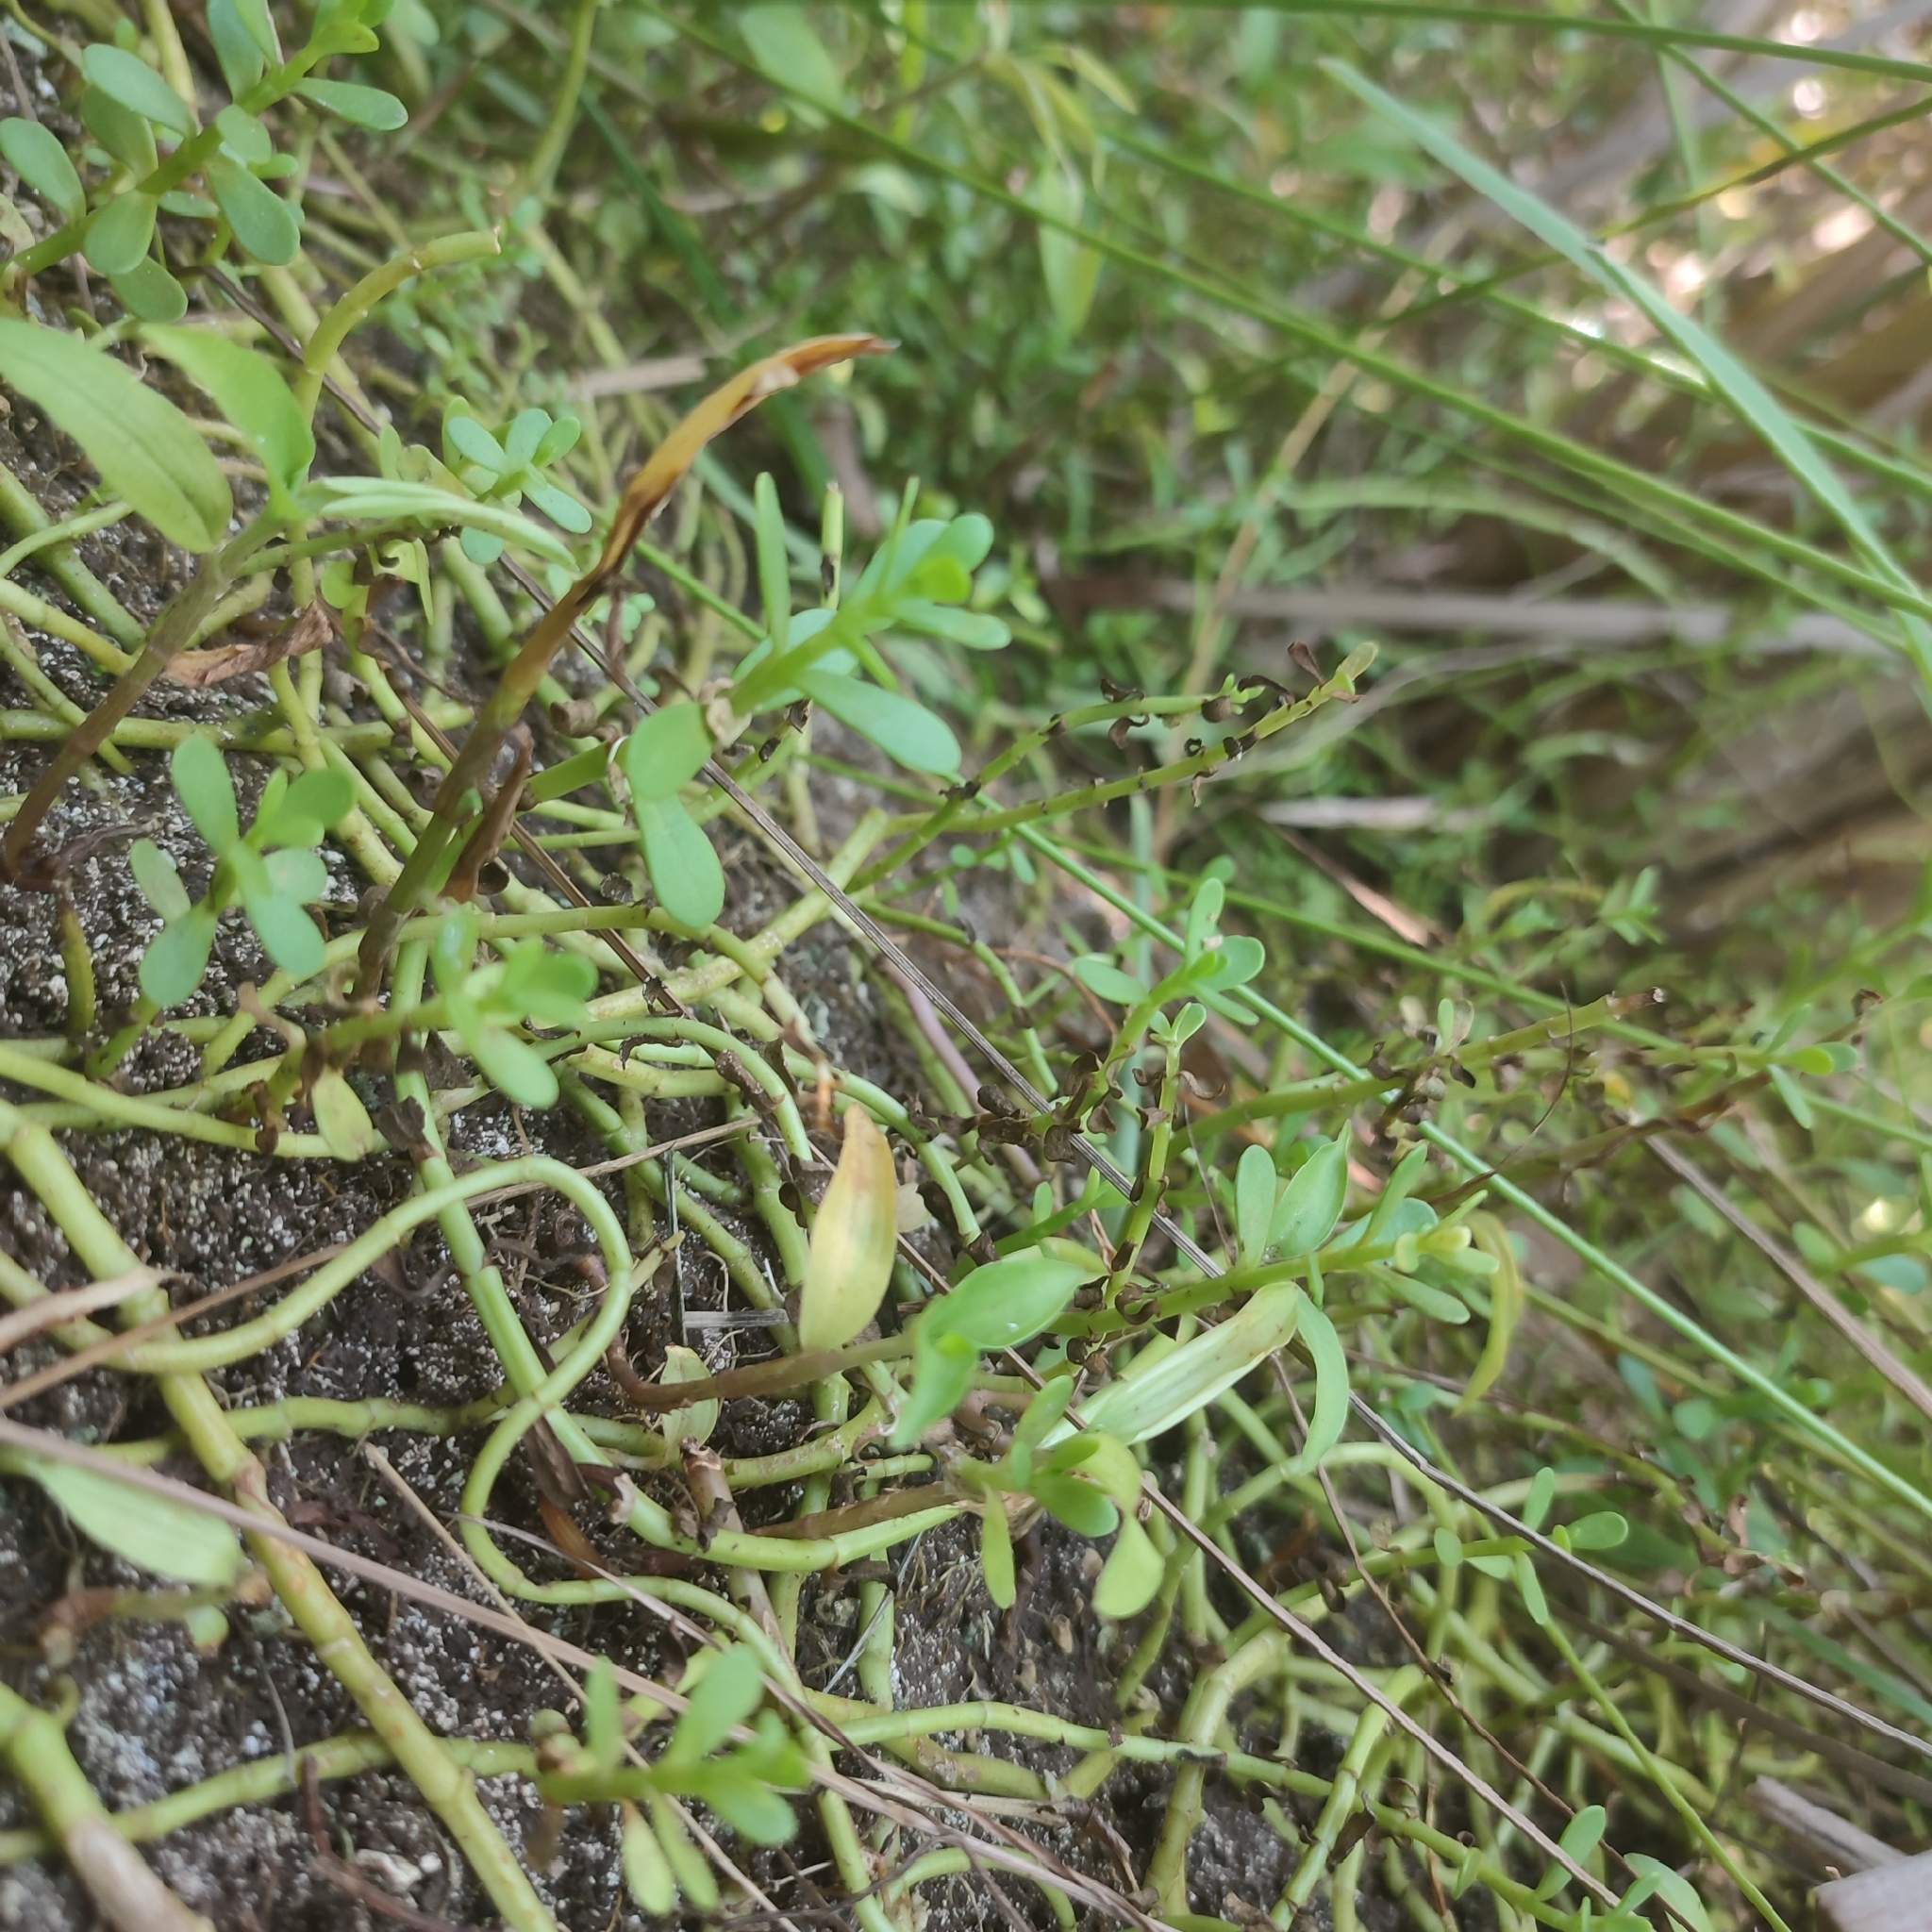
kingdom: Plantae
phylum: Tracheophyta
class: Magnoliopsida
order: Lamiales
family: Plantaginaceae
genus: Bacopa
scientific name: Bacopa monnieri
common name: Indian-pennywort
